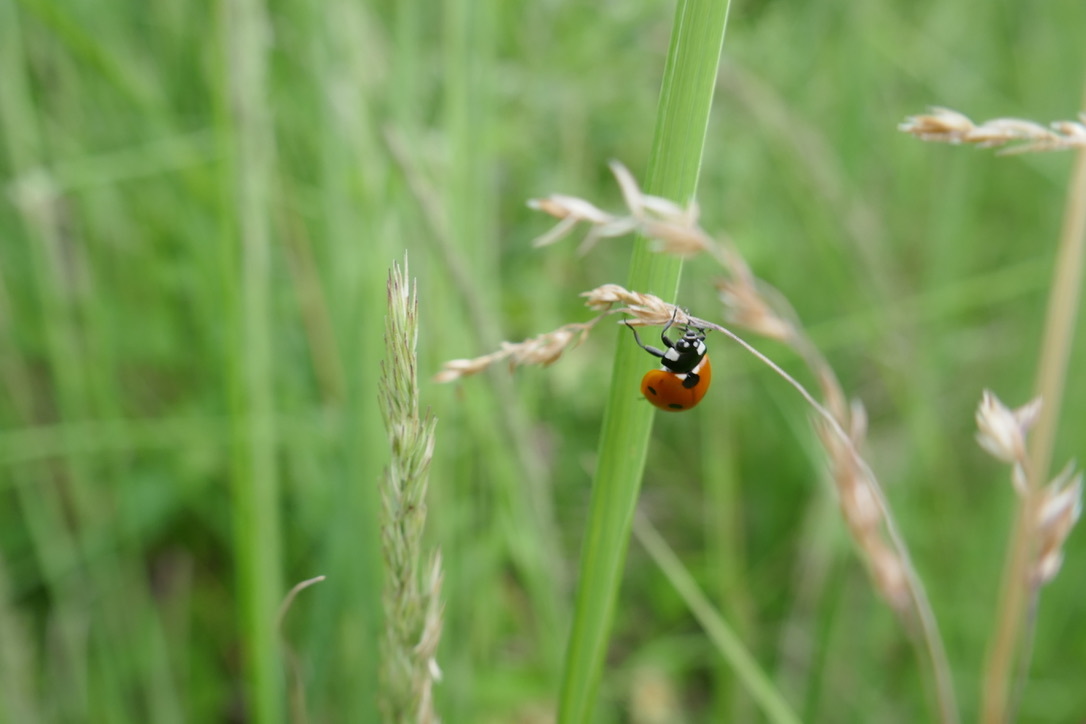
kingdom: Animalia
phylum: Arthropoda
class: Insecta
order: Coleoptera
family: Coccinellidae
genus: Coccinella
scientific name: Coccinella septempunctata
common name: Sevenspotted lady beetle
